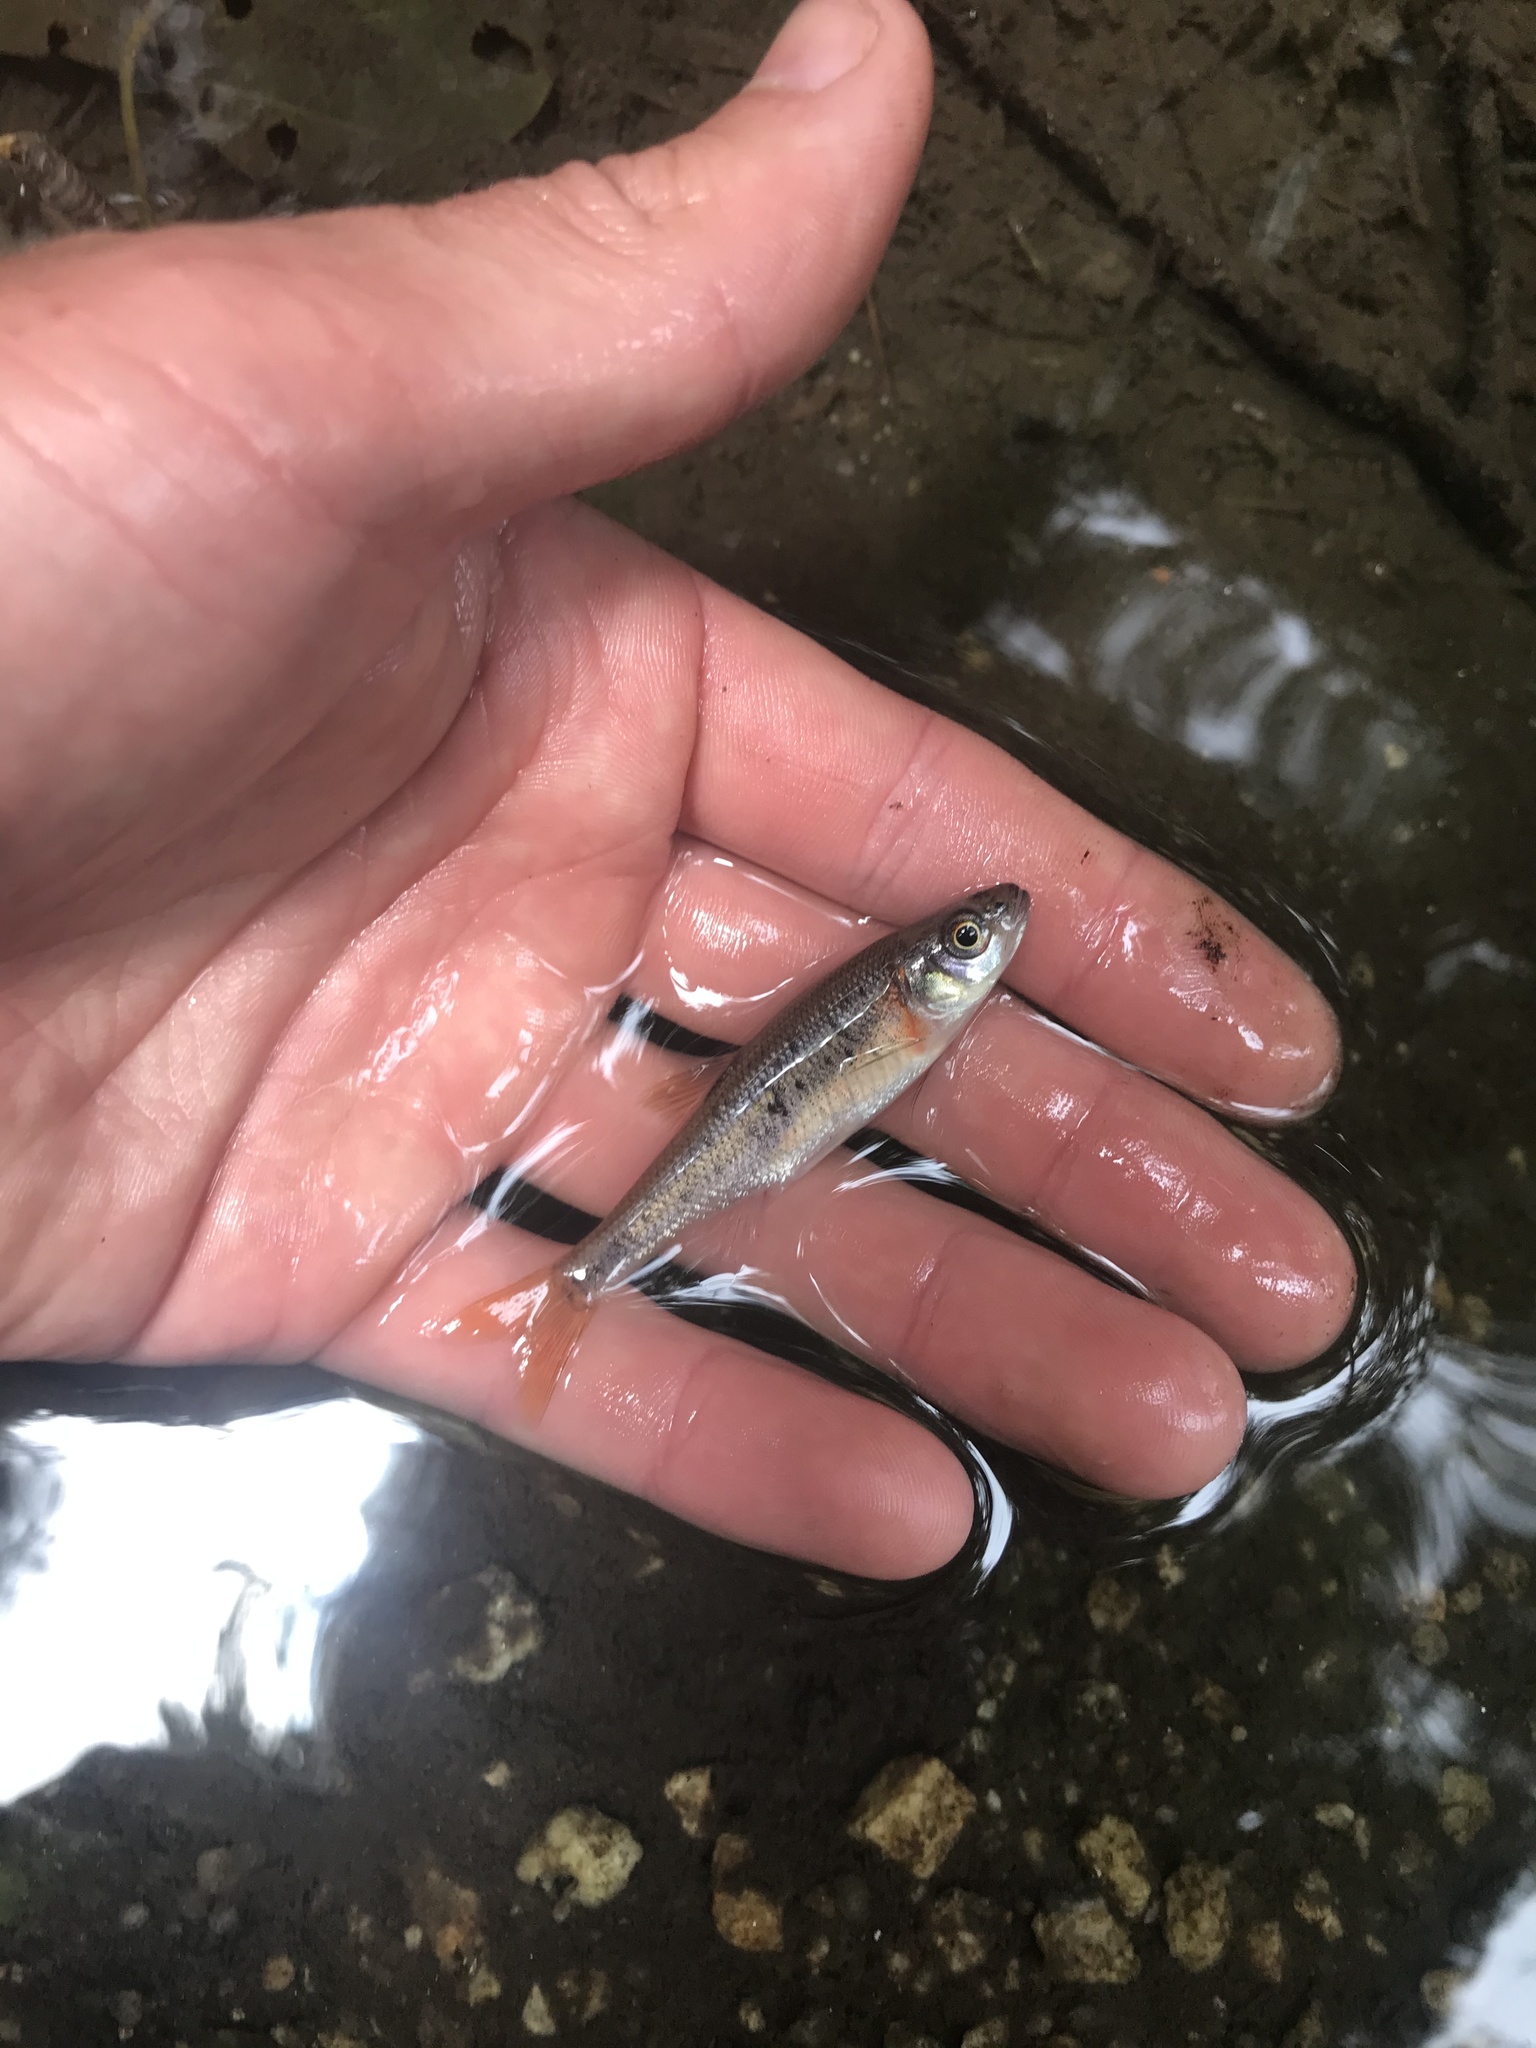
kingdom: Animalia
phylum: Chordata
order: Cypriniformes
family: Cyprinidae
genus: Clinostomus
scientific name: Clinostomus funduloides
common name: Rosyside dace
